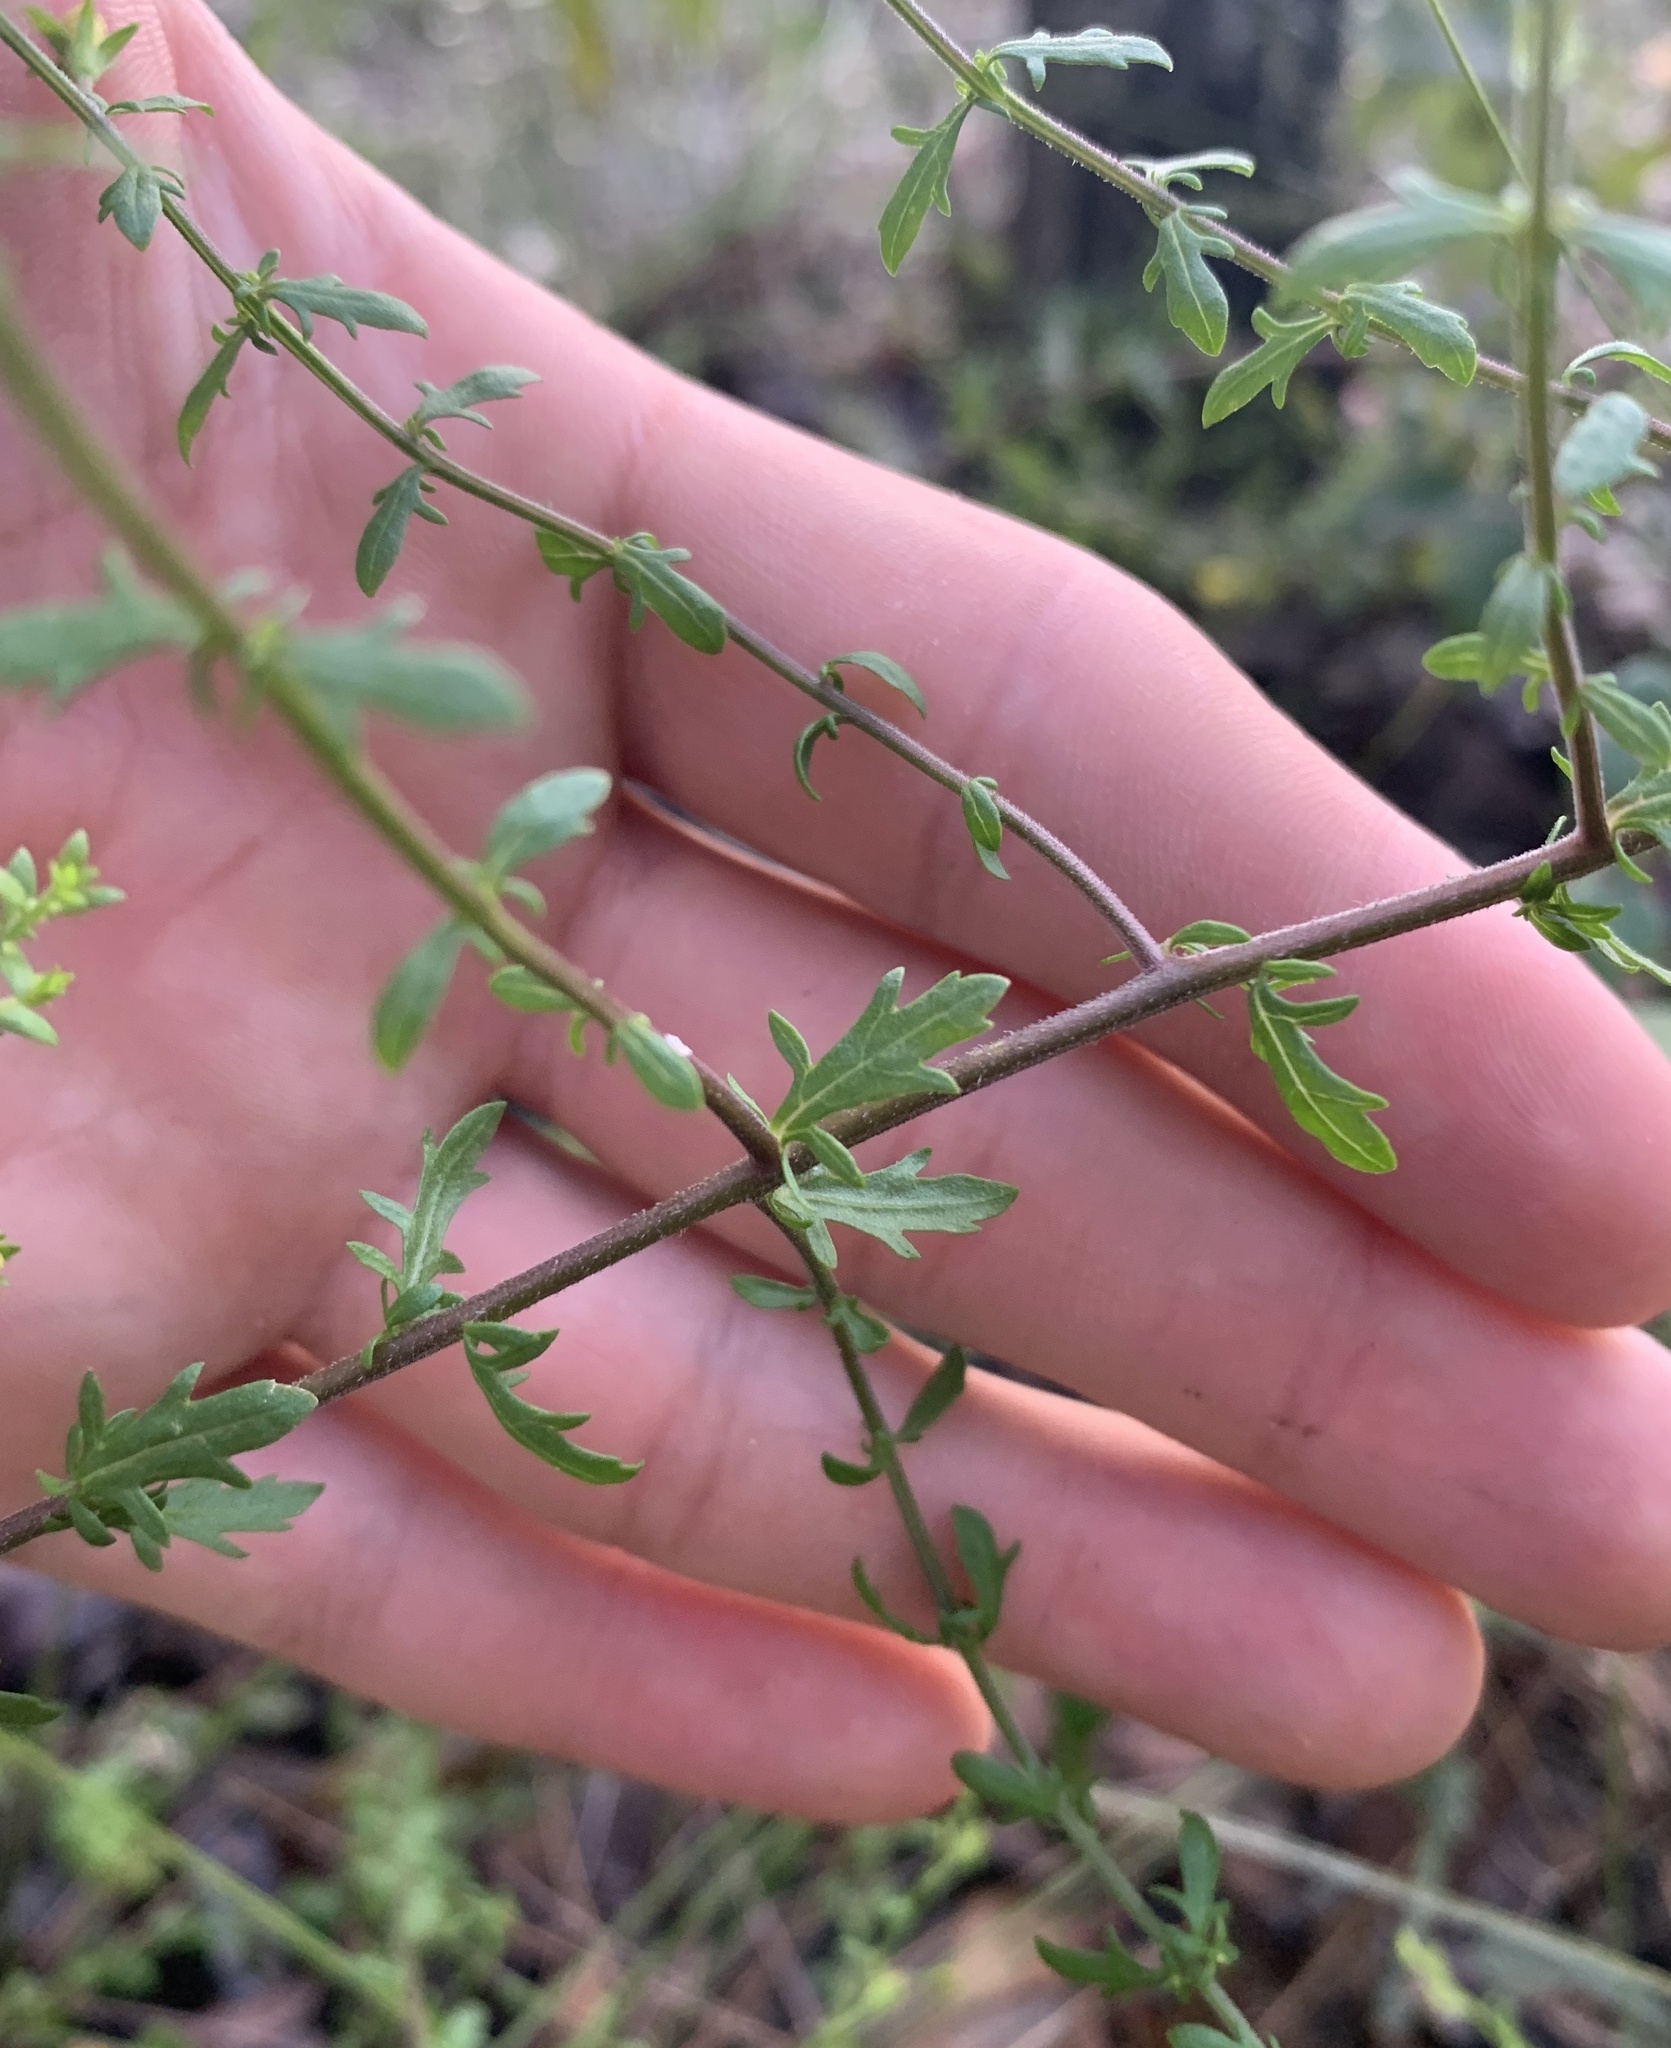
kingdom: Plantae
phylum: Tracheophyta
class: Magnoliopsida
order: Lamiales
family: Orobanchaceae
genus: Seymeria
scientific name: Seymeria pectinata
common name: Piedmont black-senna
